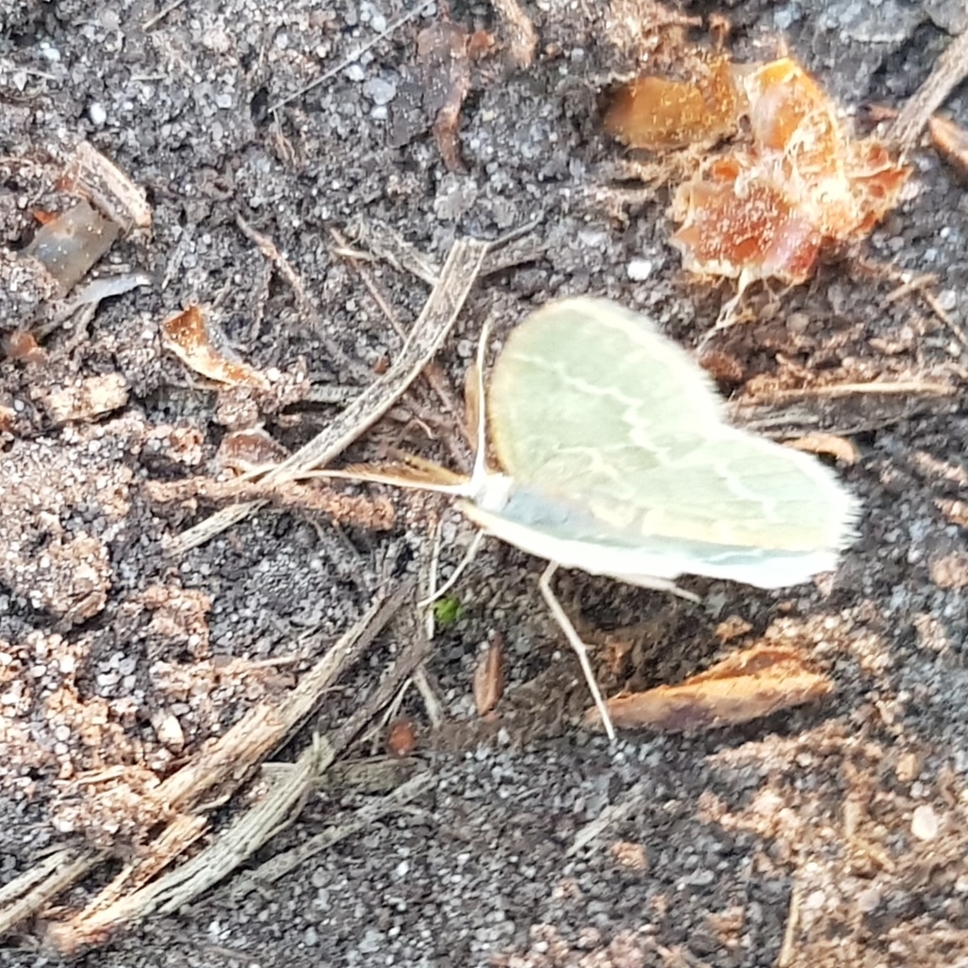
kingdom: Animalia
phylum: Arthropoda
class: Insecta
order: Lepidoptera
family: Geometridae
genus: Jodis
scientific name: Jodis putata
